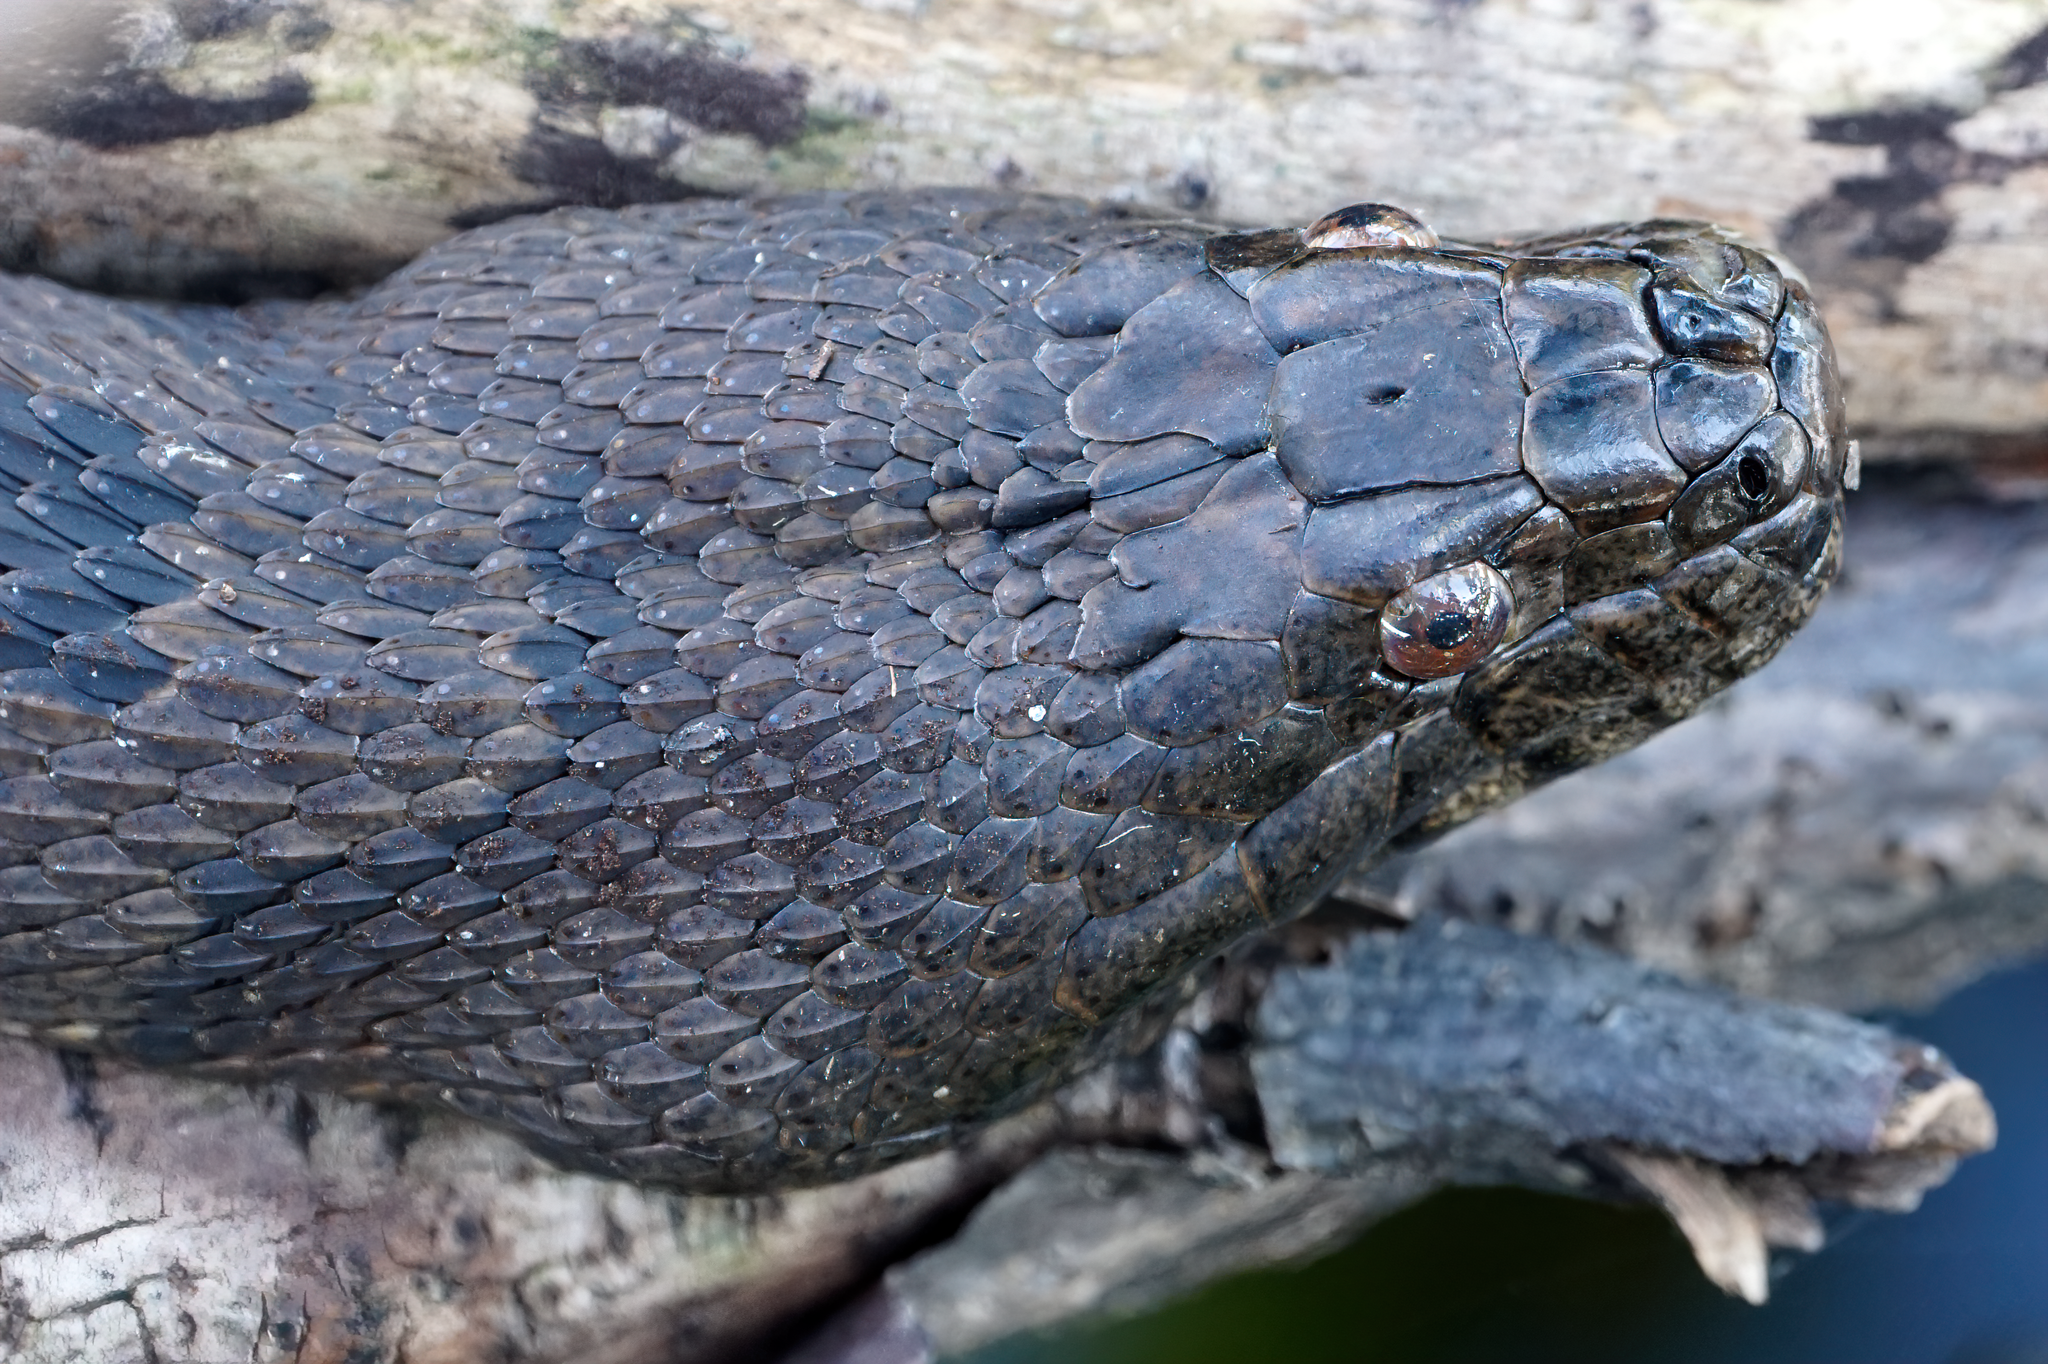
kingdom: Animalia
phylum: Chordata
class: Squamata
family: Colubridae
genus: Nerodia
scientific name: Nerodia taxispilota
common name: Brown water snake
